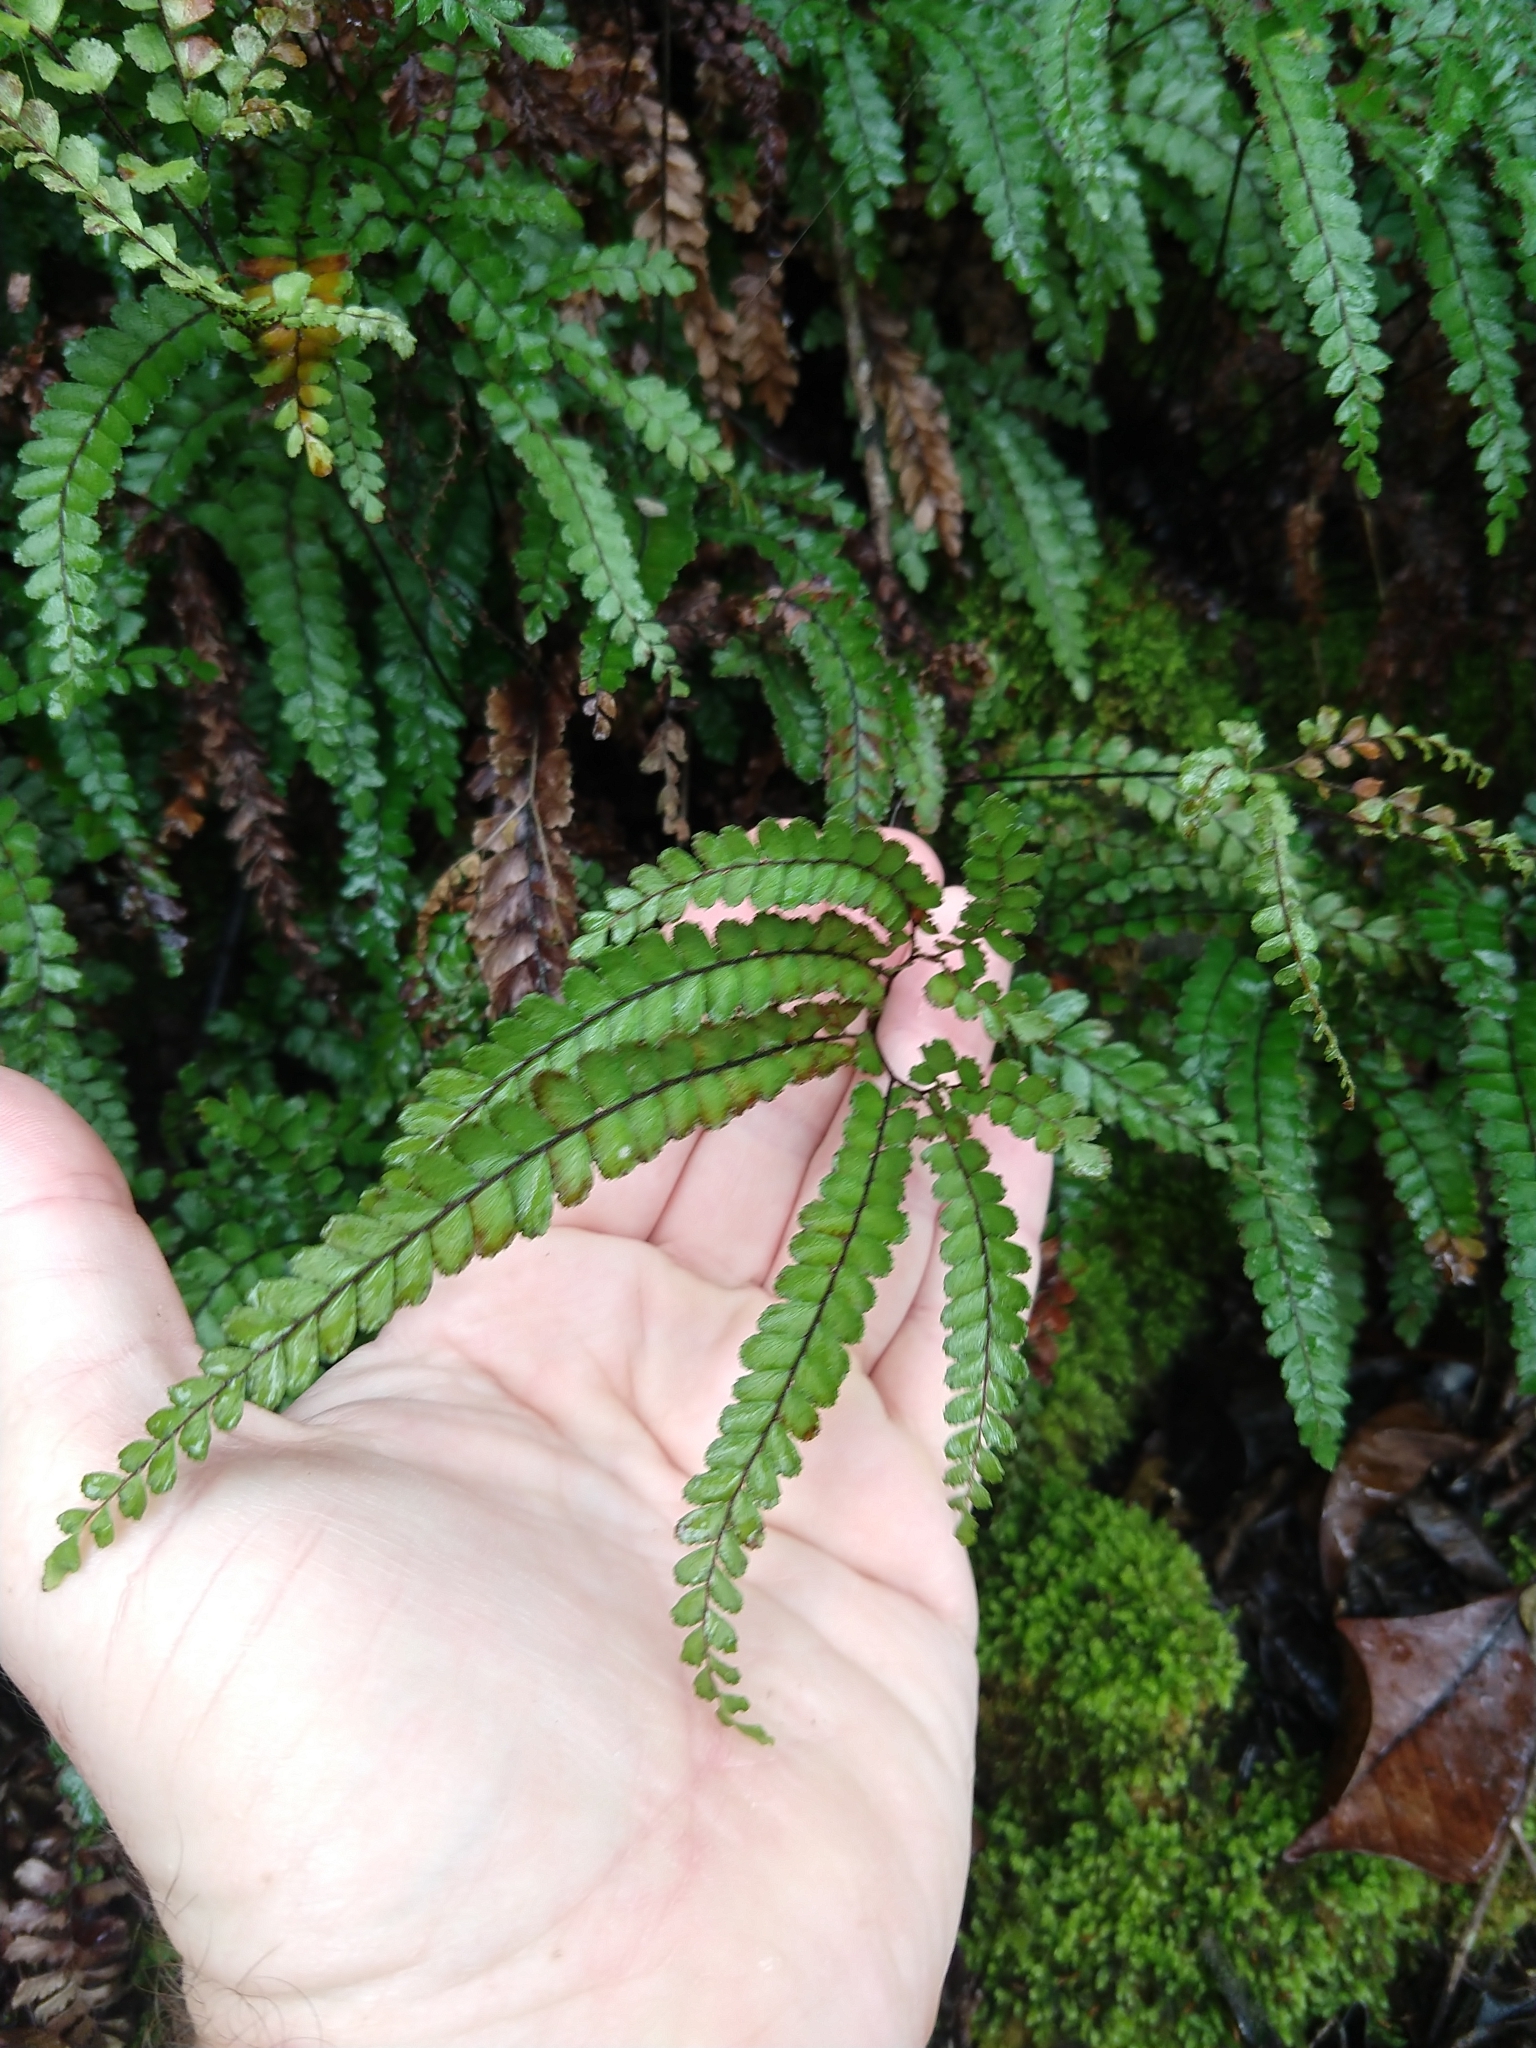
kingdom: Plantae
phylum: Tracheophyta
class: Polypodiopsida
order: Polypodiales
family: Pteridaceae
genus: Adiantum
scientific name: Adiantum hispidulum
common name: Rough maidenhair
